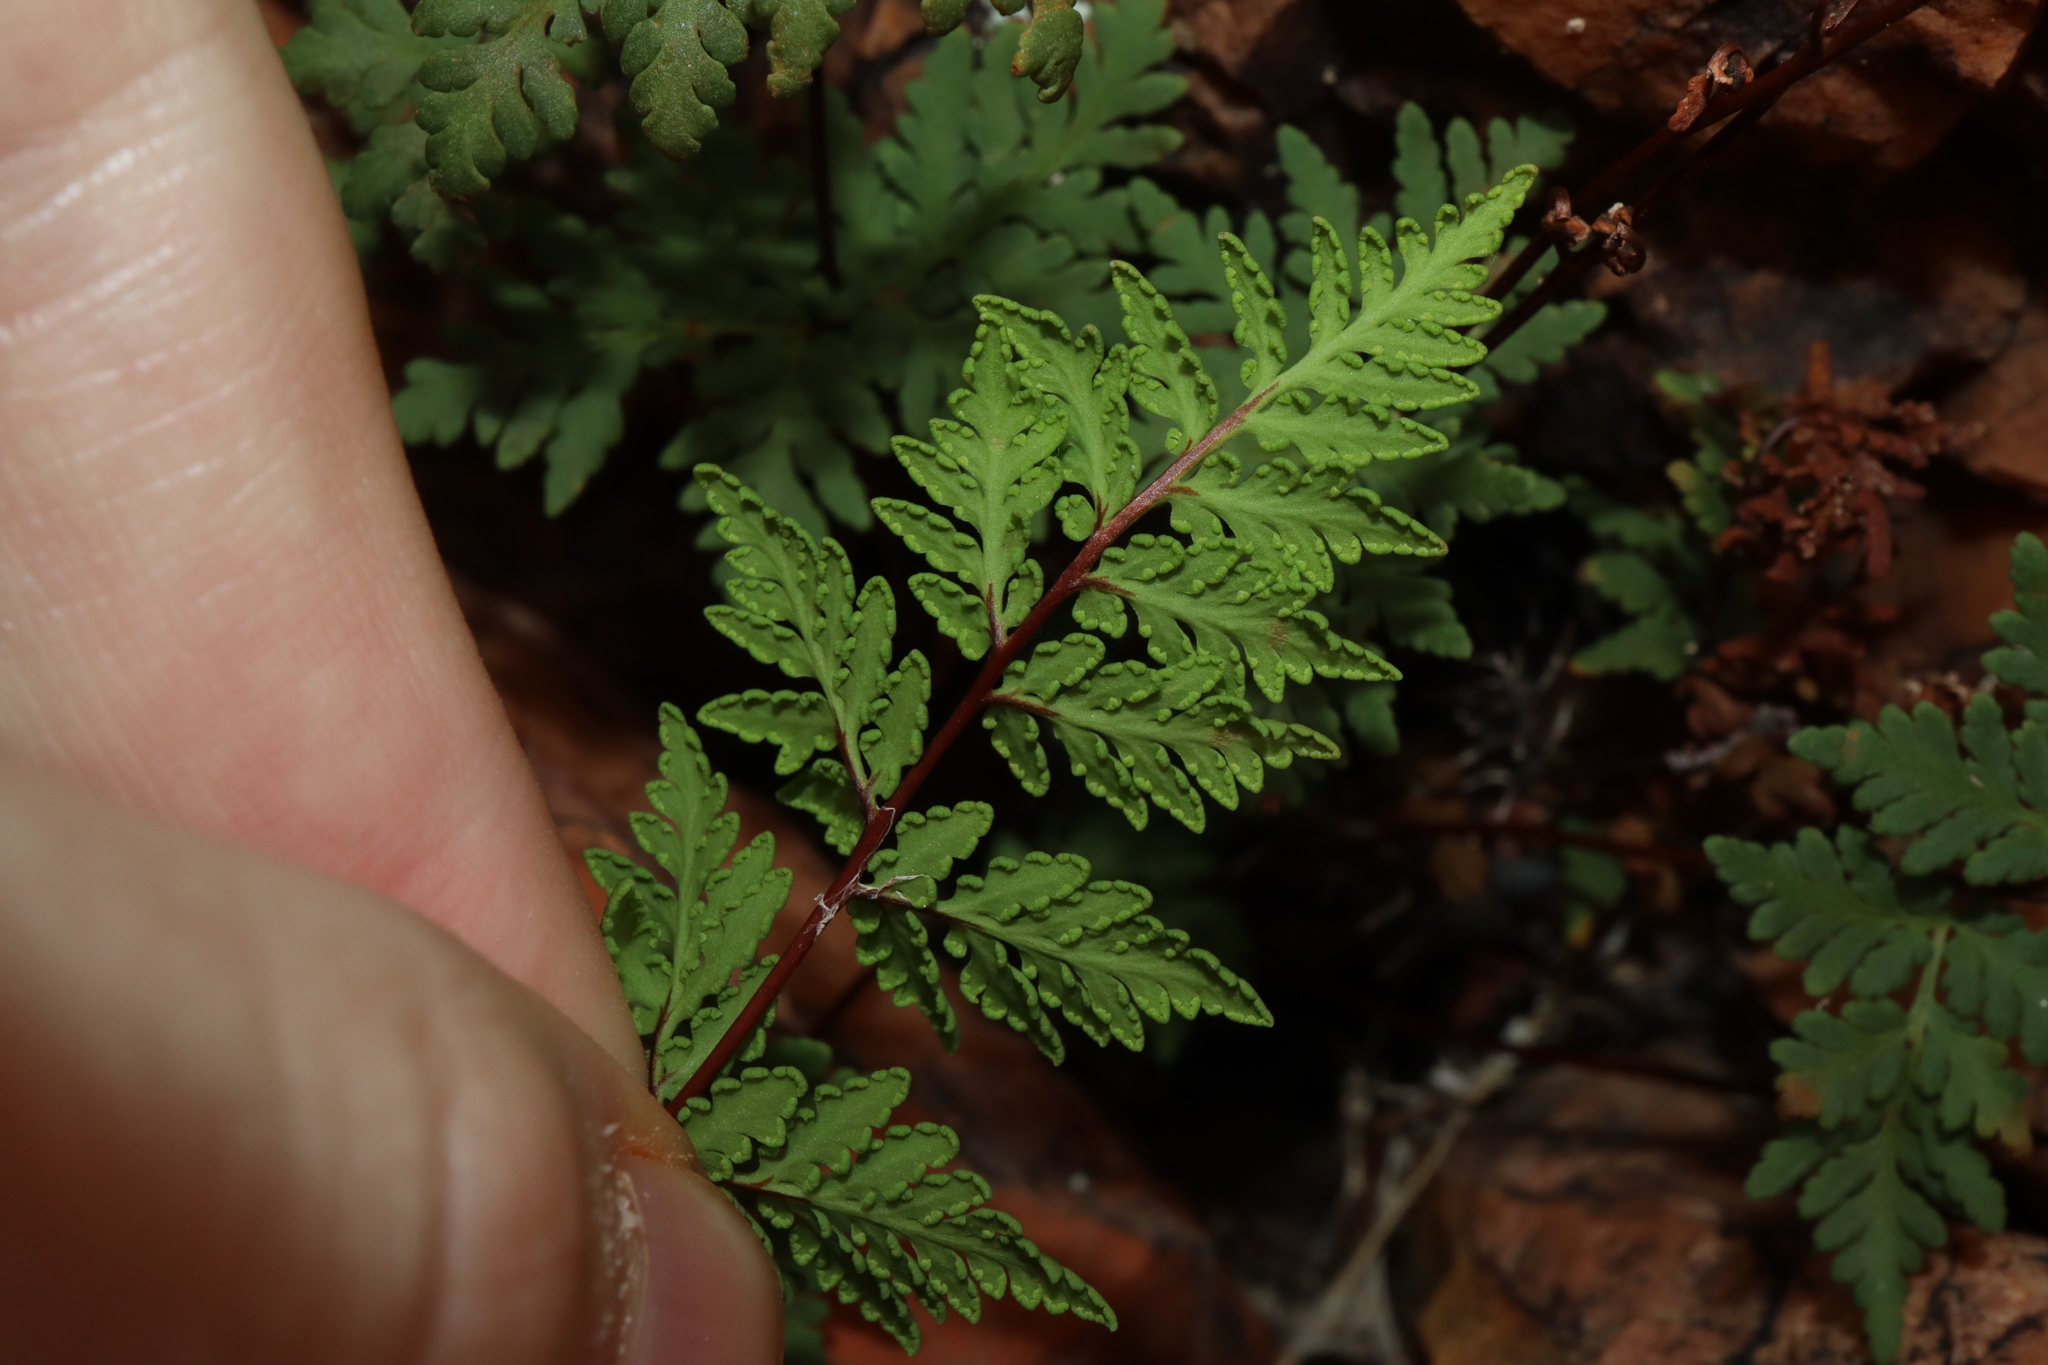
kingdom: Plantae
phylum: Tracheophyta
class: Polypodiopsida
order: Polypodiales
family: Pteridaceae
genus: Cheilanthes
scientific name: Cheilanthes sieberi
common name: Mulga fern
